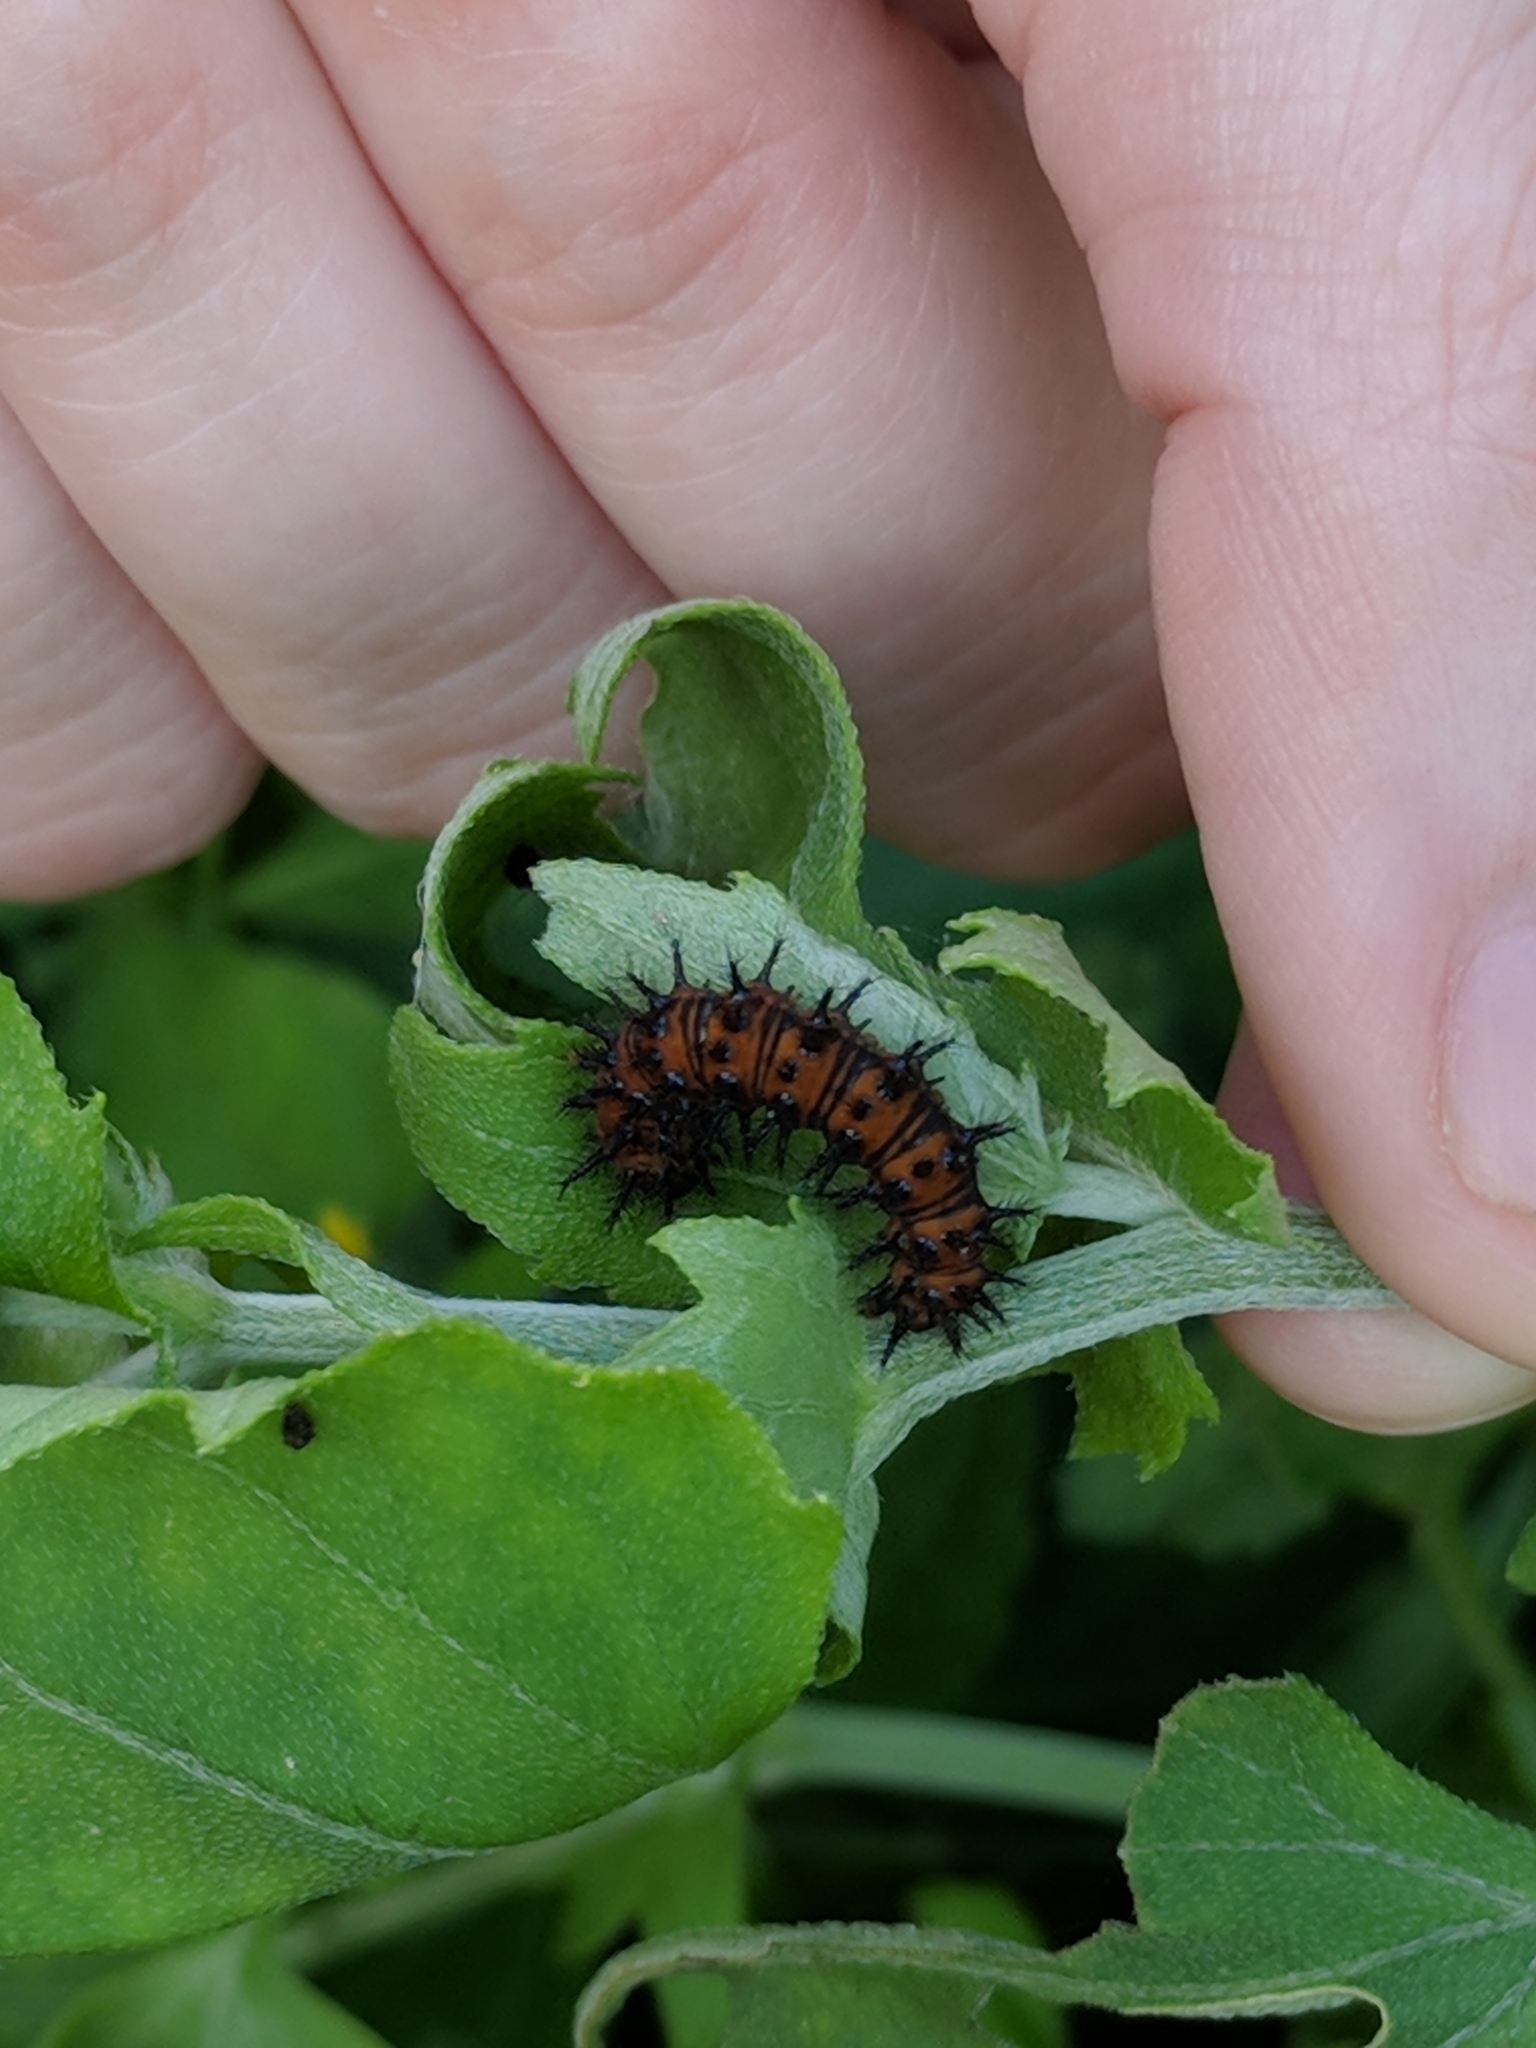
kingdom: Animalia
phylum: Arthropoda
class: Insecta
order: Lepidoptera
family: Nymphalidae
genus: Chlosyne
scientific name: Chlosyne lacinia
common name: Bordered patch
